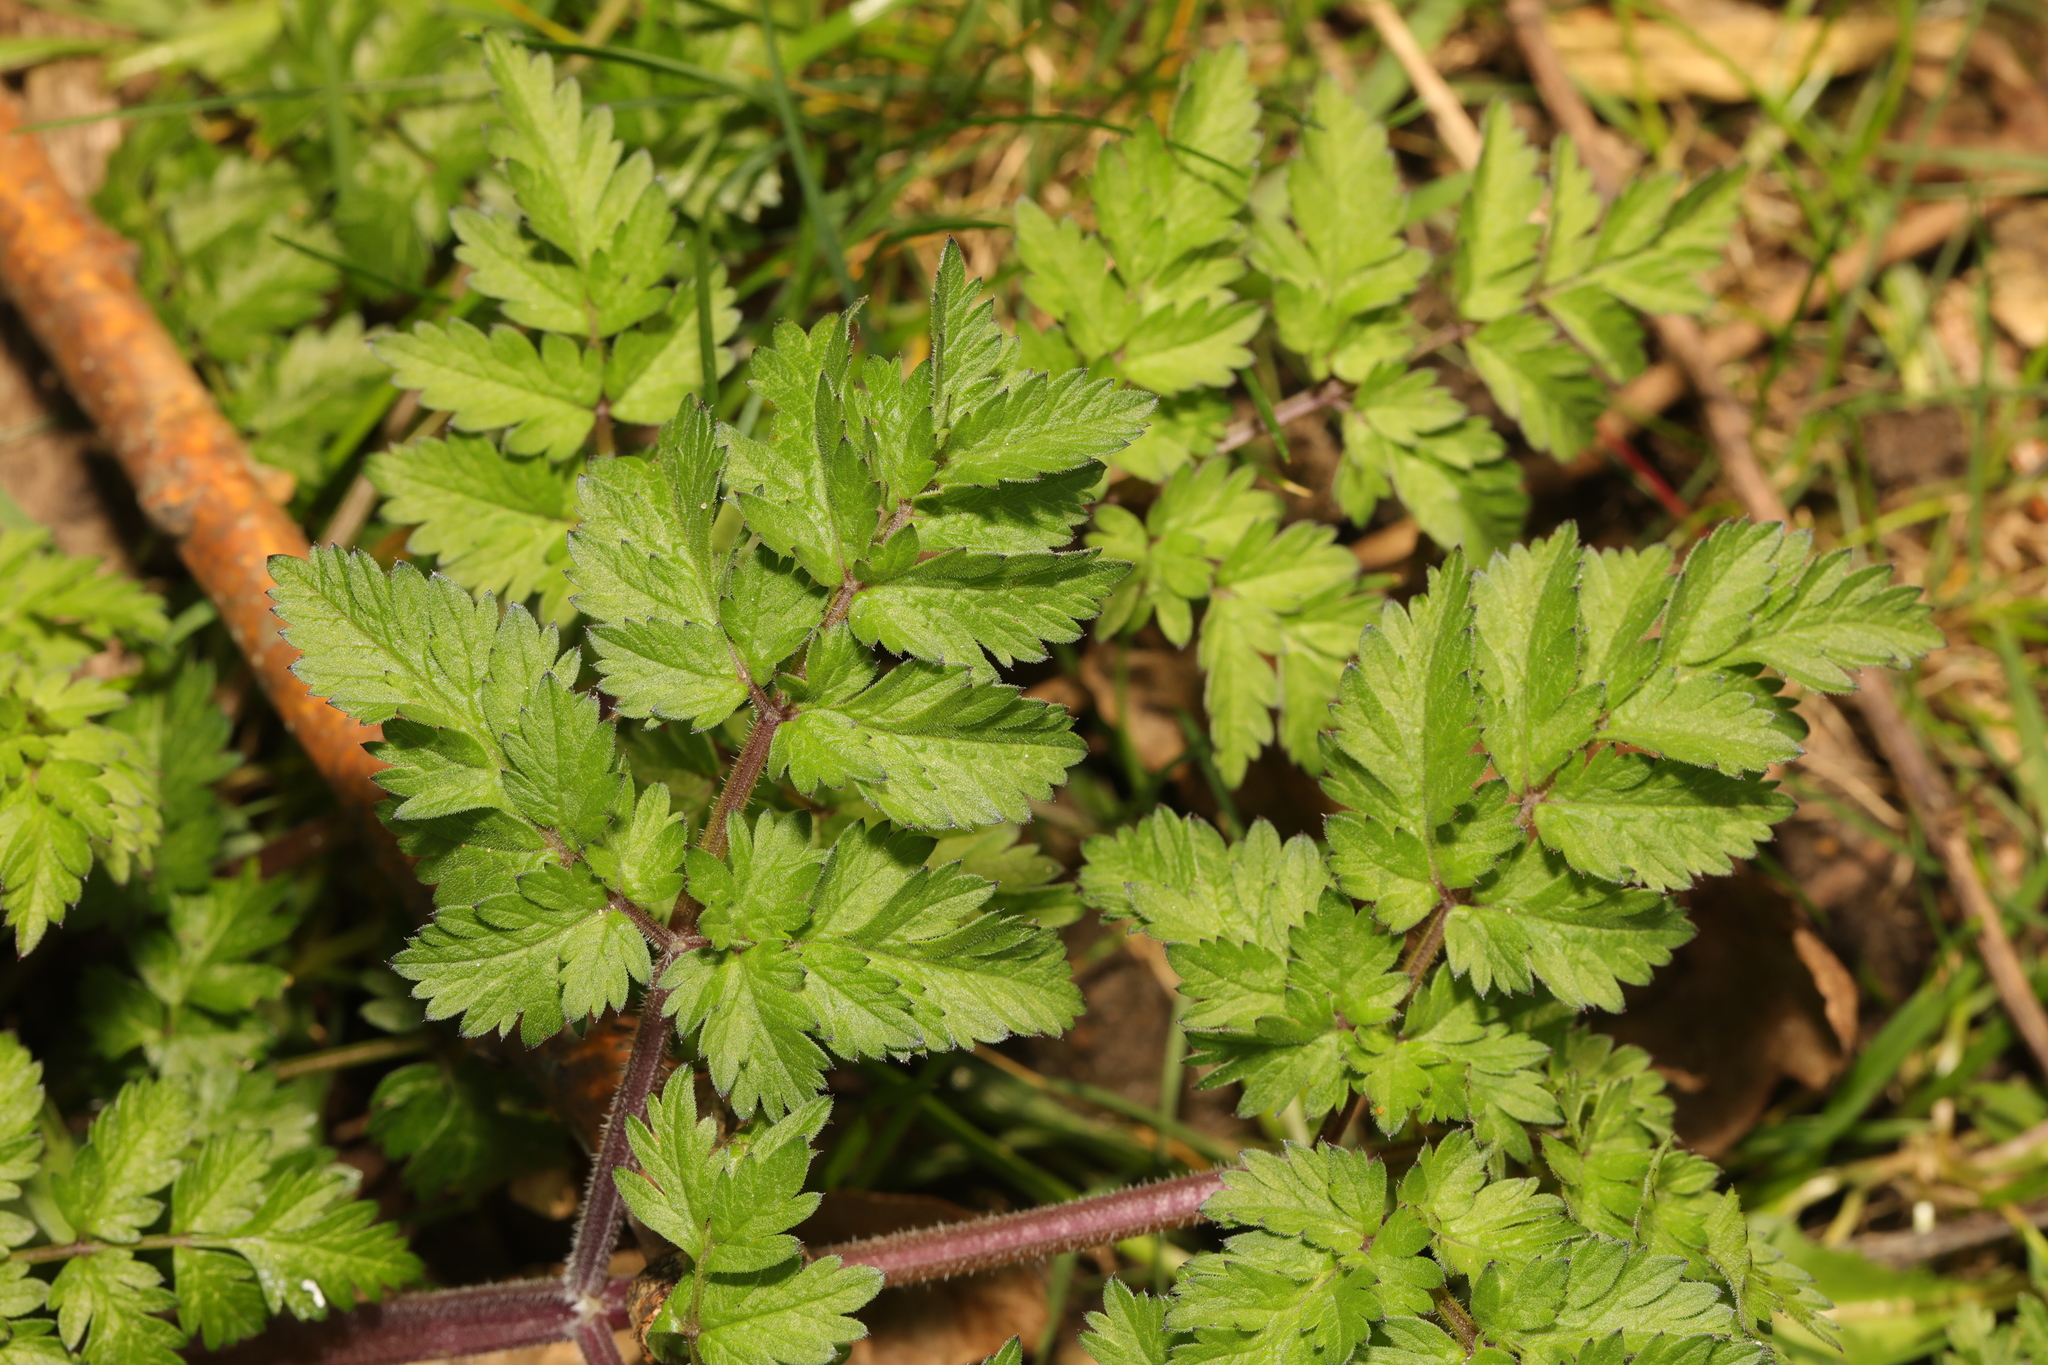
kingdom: Plantae
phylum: Tracheophyta
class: Magnoliopsida
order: Apiales
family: Apiaceae
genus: Anthriscus
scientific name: Anthriscus sylvestris
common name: Cow parsley
